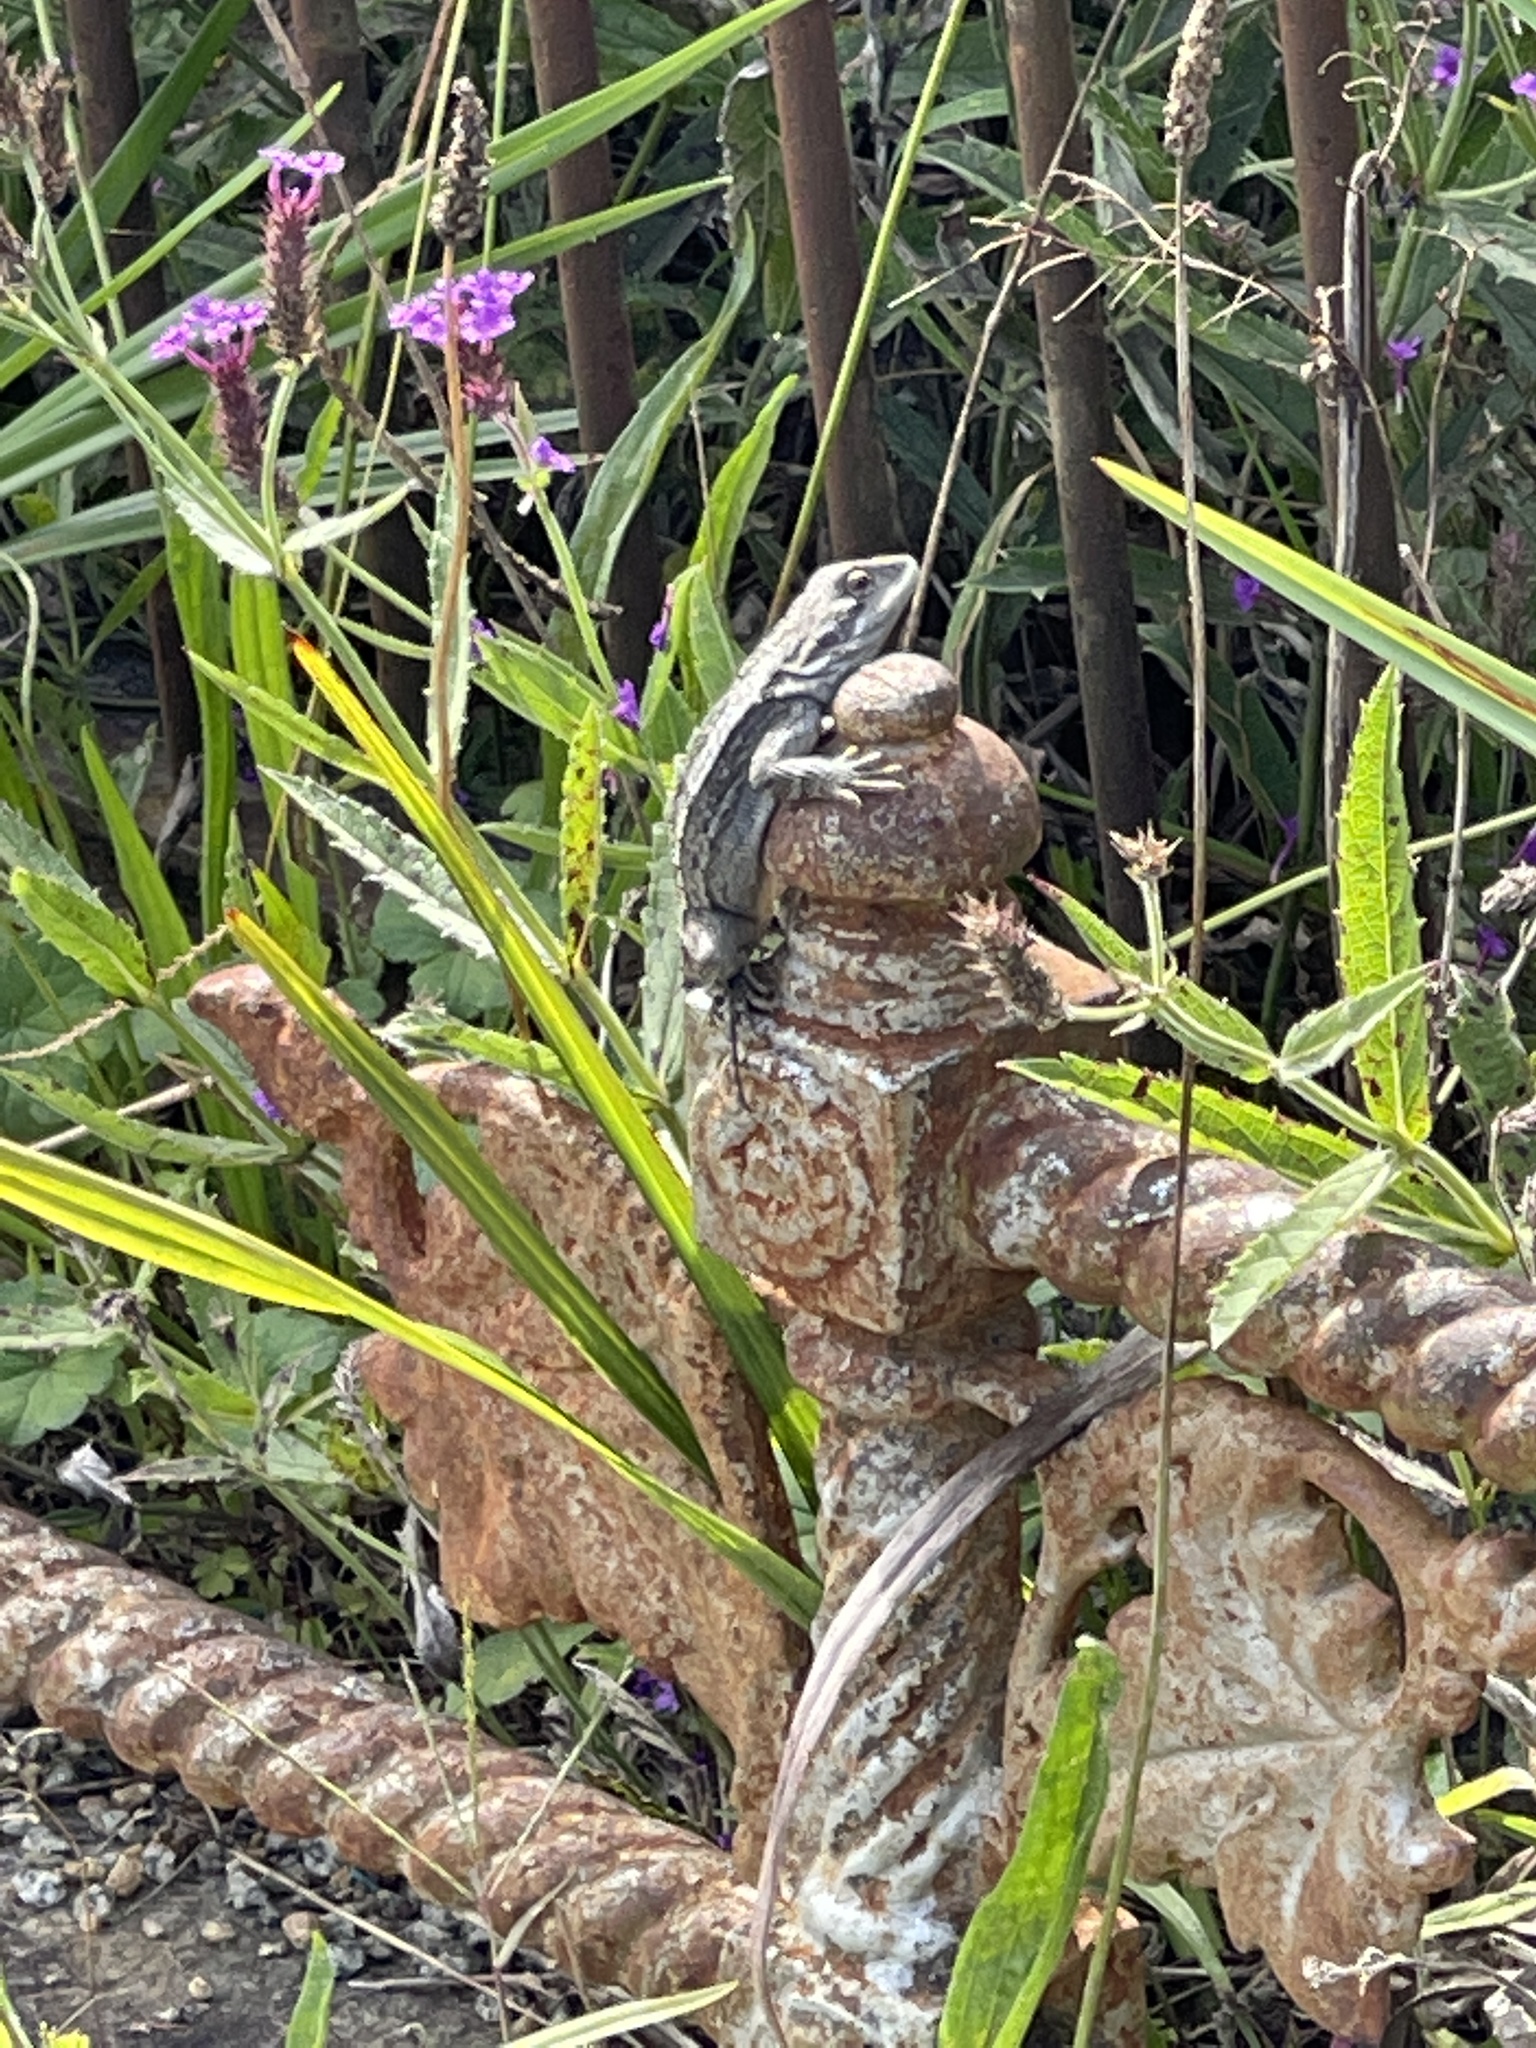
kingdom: Animalia
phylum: Chordata
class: Squamata
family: Agamidae
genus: Amphibolurus
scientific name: Amphibolurus muricatus
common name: Jacky lizard
